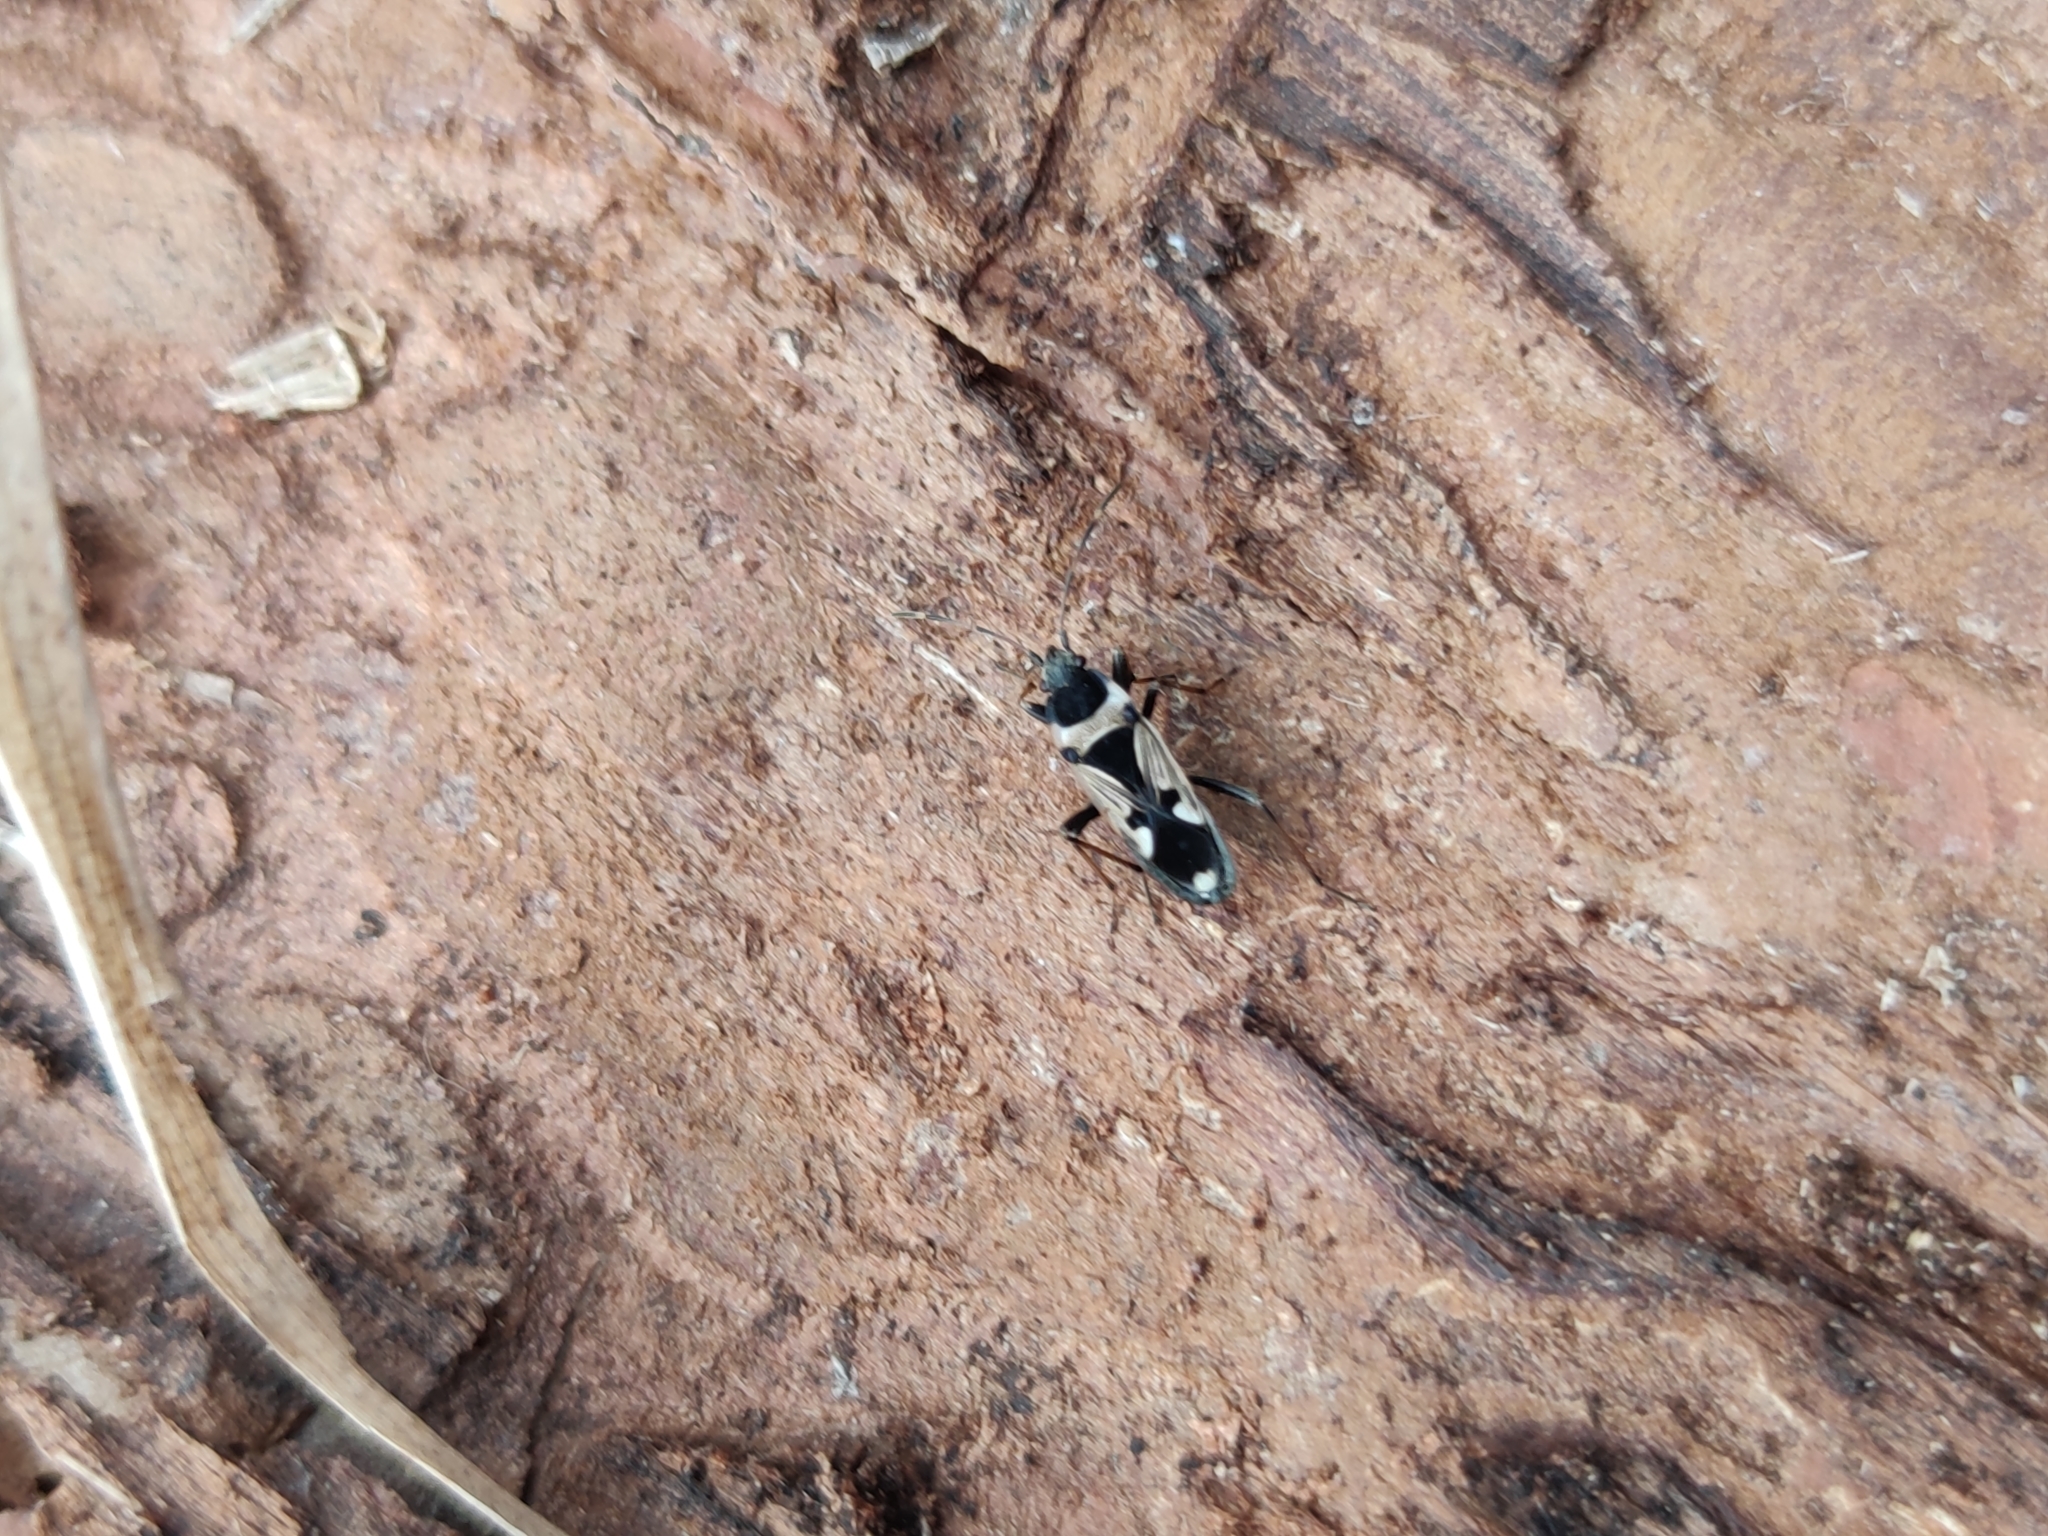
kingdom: Animalia
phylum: Arthropoda
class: Insecta
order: Hemiptera
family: Rhyparochromidae
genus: Raglius
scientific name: Raglius confusus
